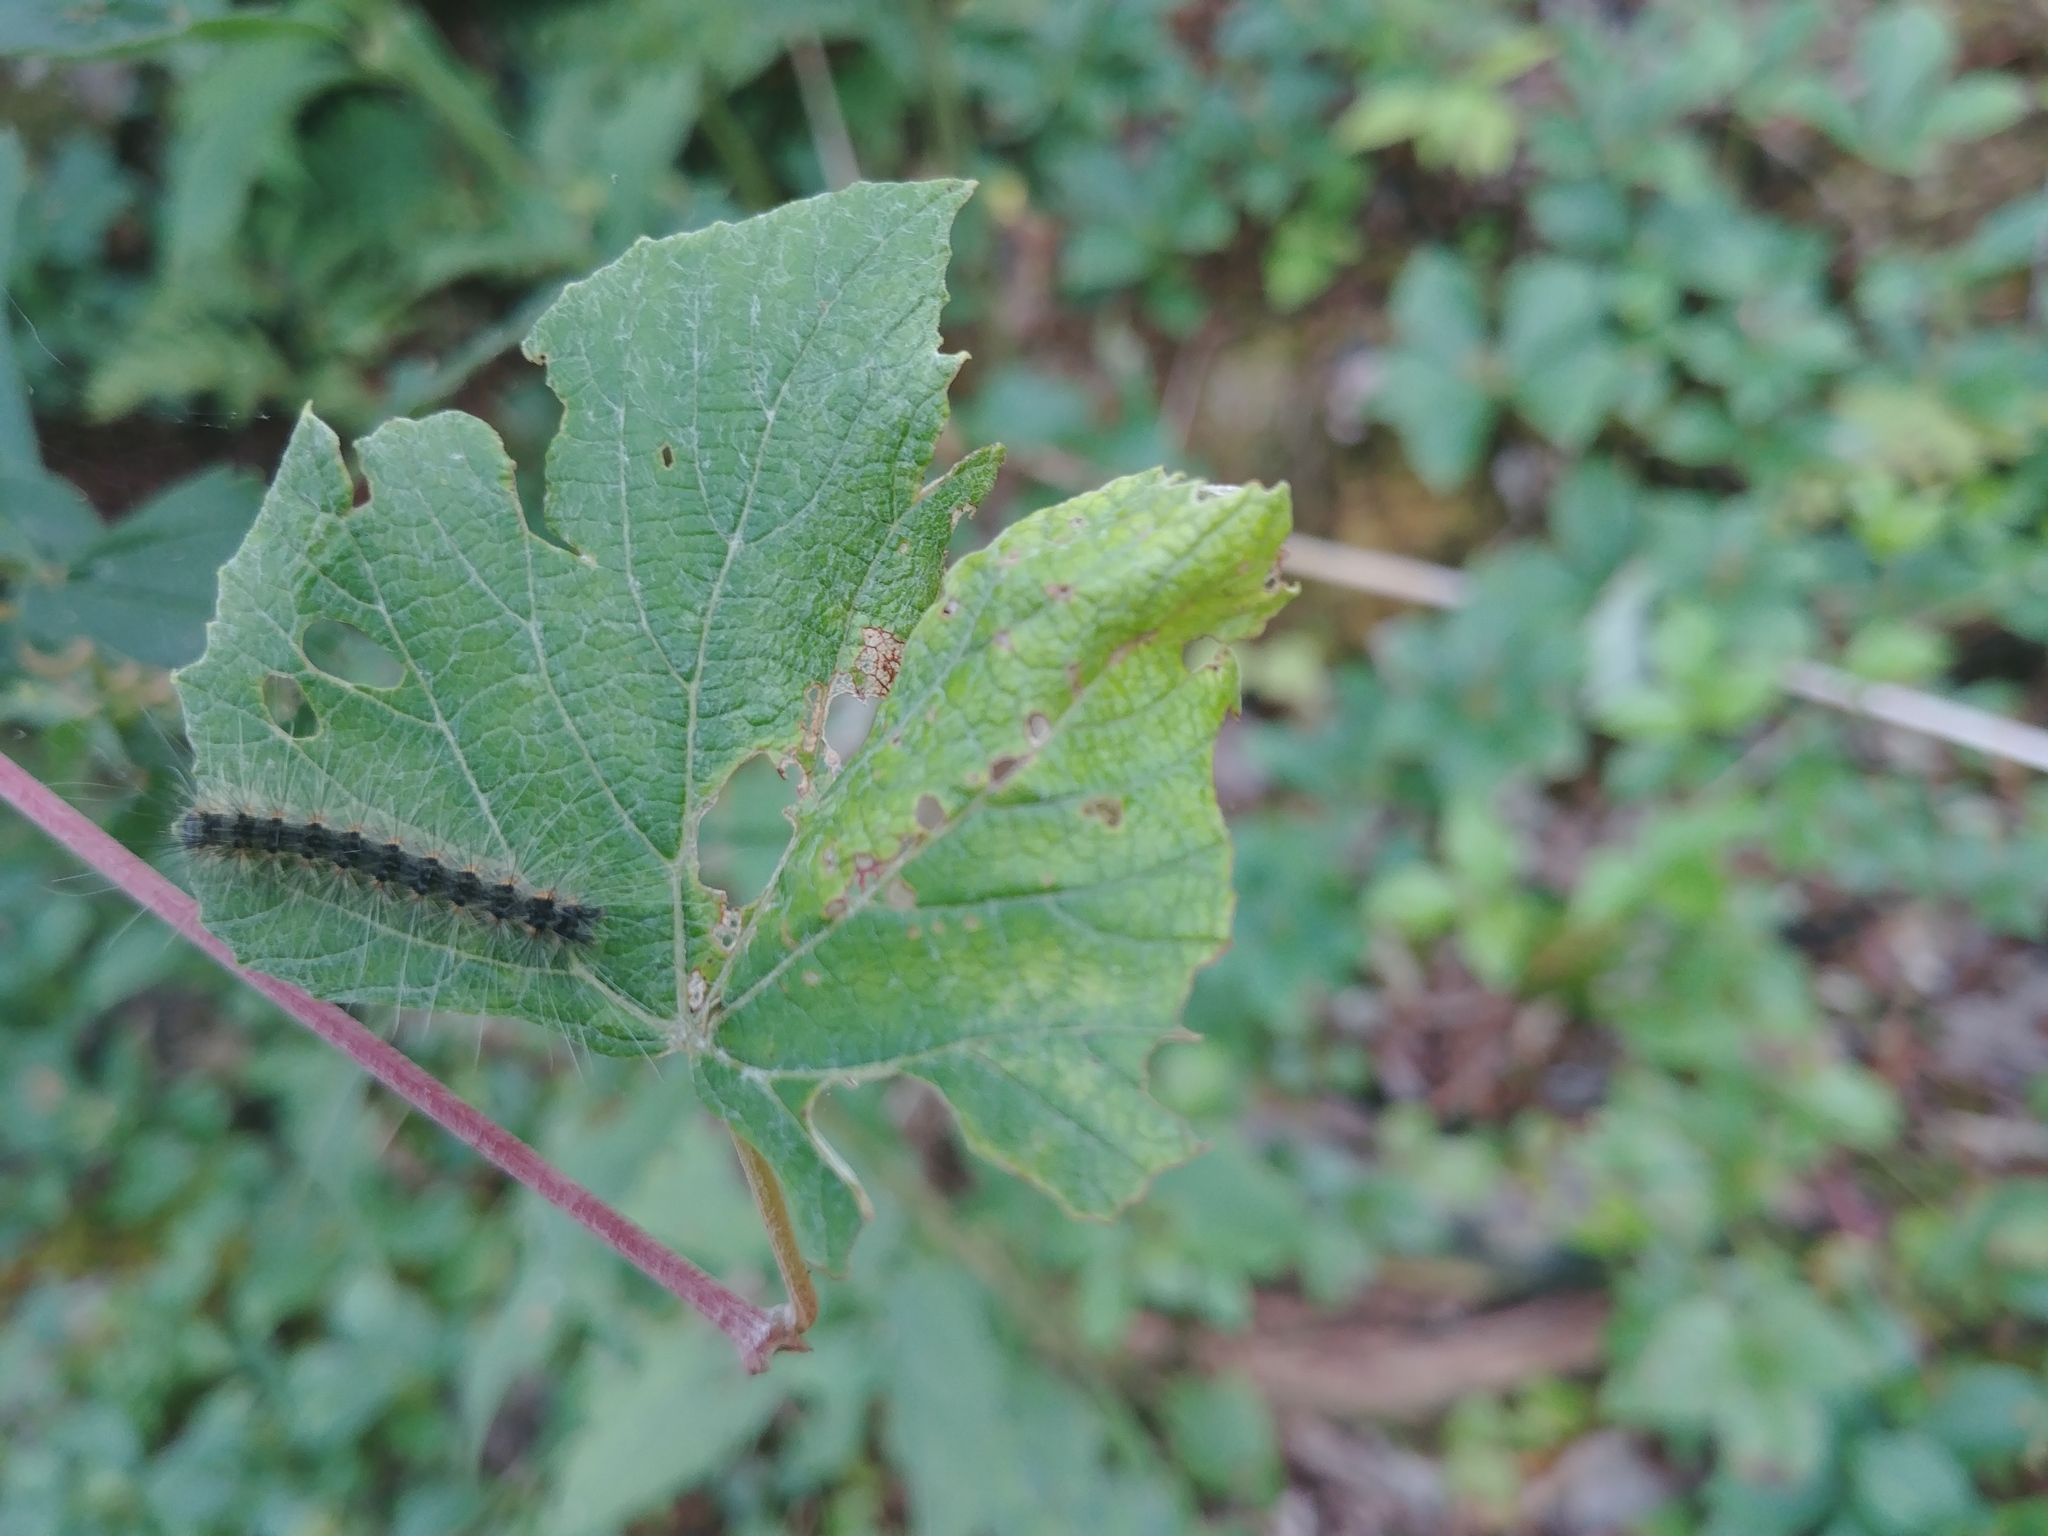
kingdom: Animalia
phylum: Arthropoda
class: Insecta
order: Lepidoptera
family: Erebidae
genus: Hyphantria
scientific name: Hyphantria cunea
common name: American white moth
